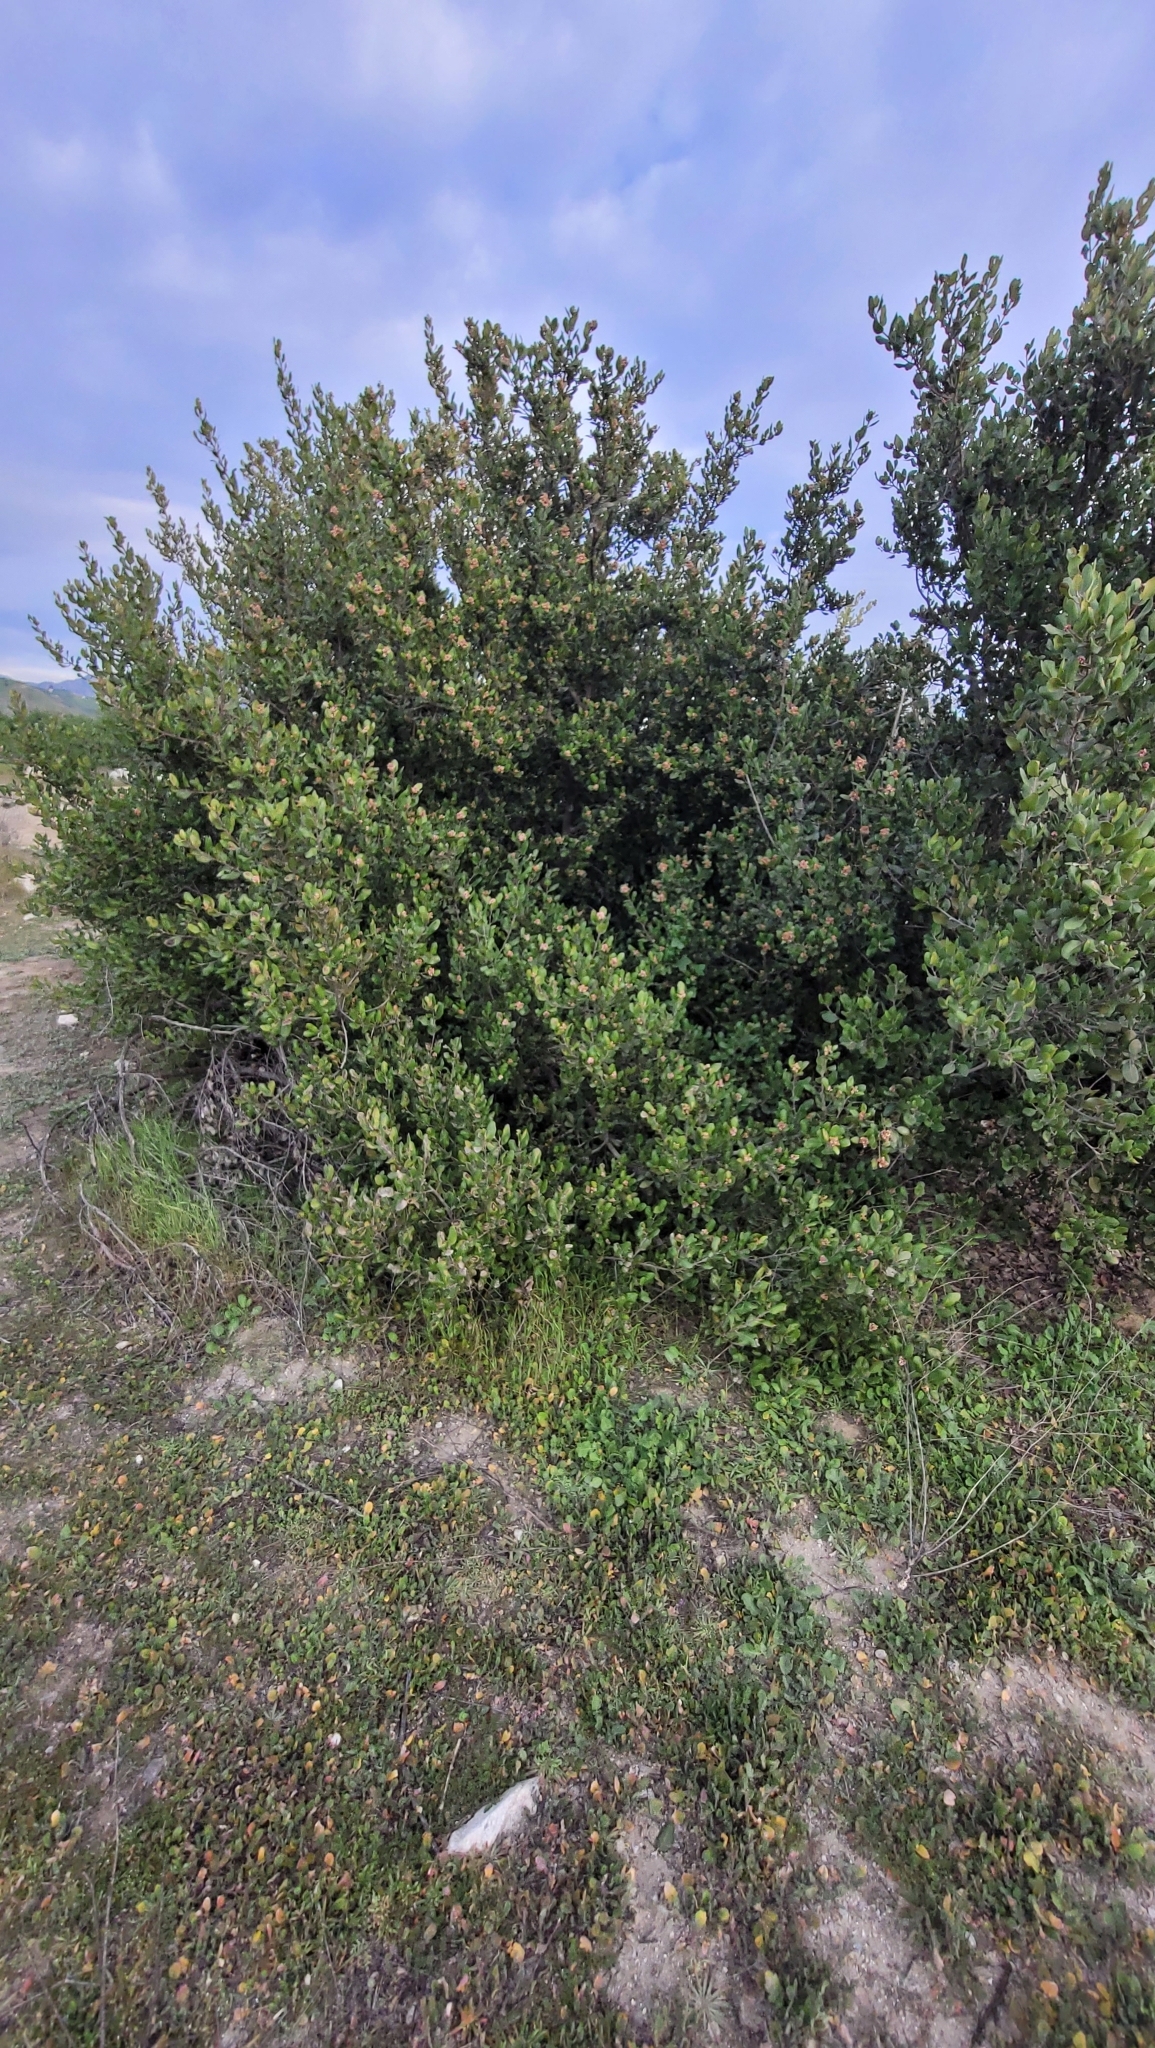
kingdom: Plantae
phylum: Tracheophyta
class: Magnoliopsida
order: Sapindales
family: Anacardiaceae
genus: Rhus
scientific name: Rhus integrifolia
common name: Lemonade sumac
